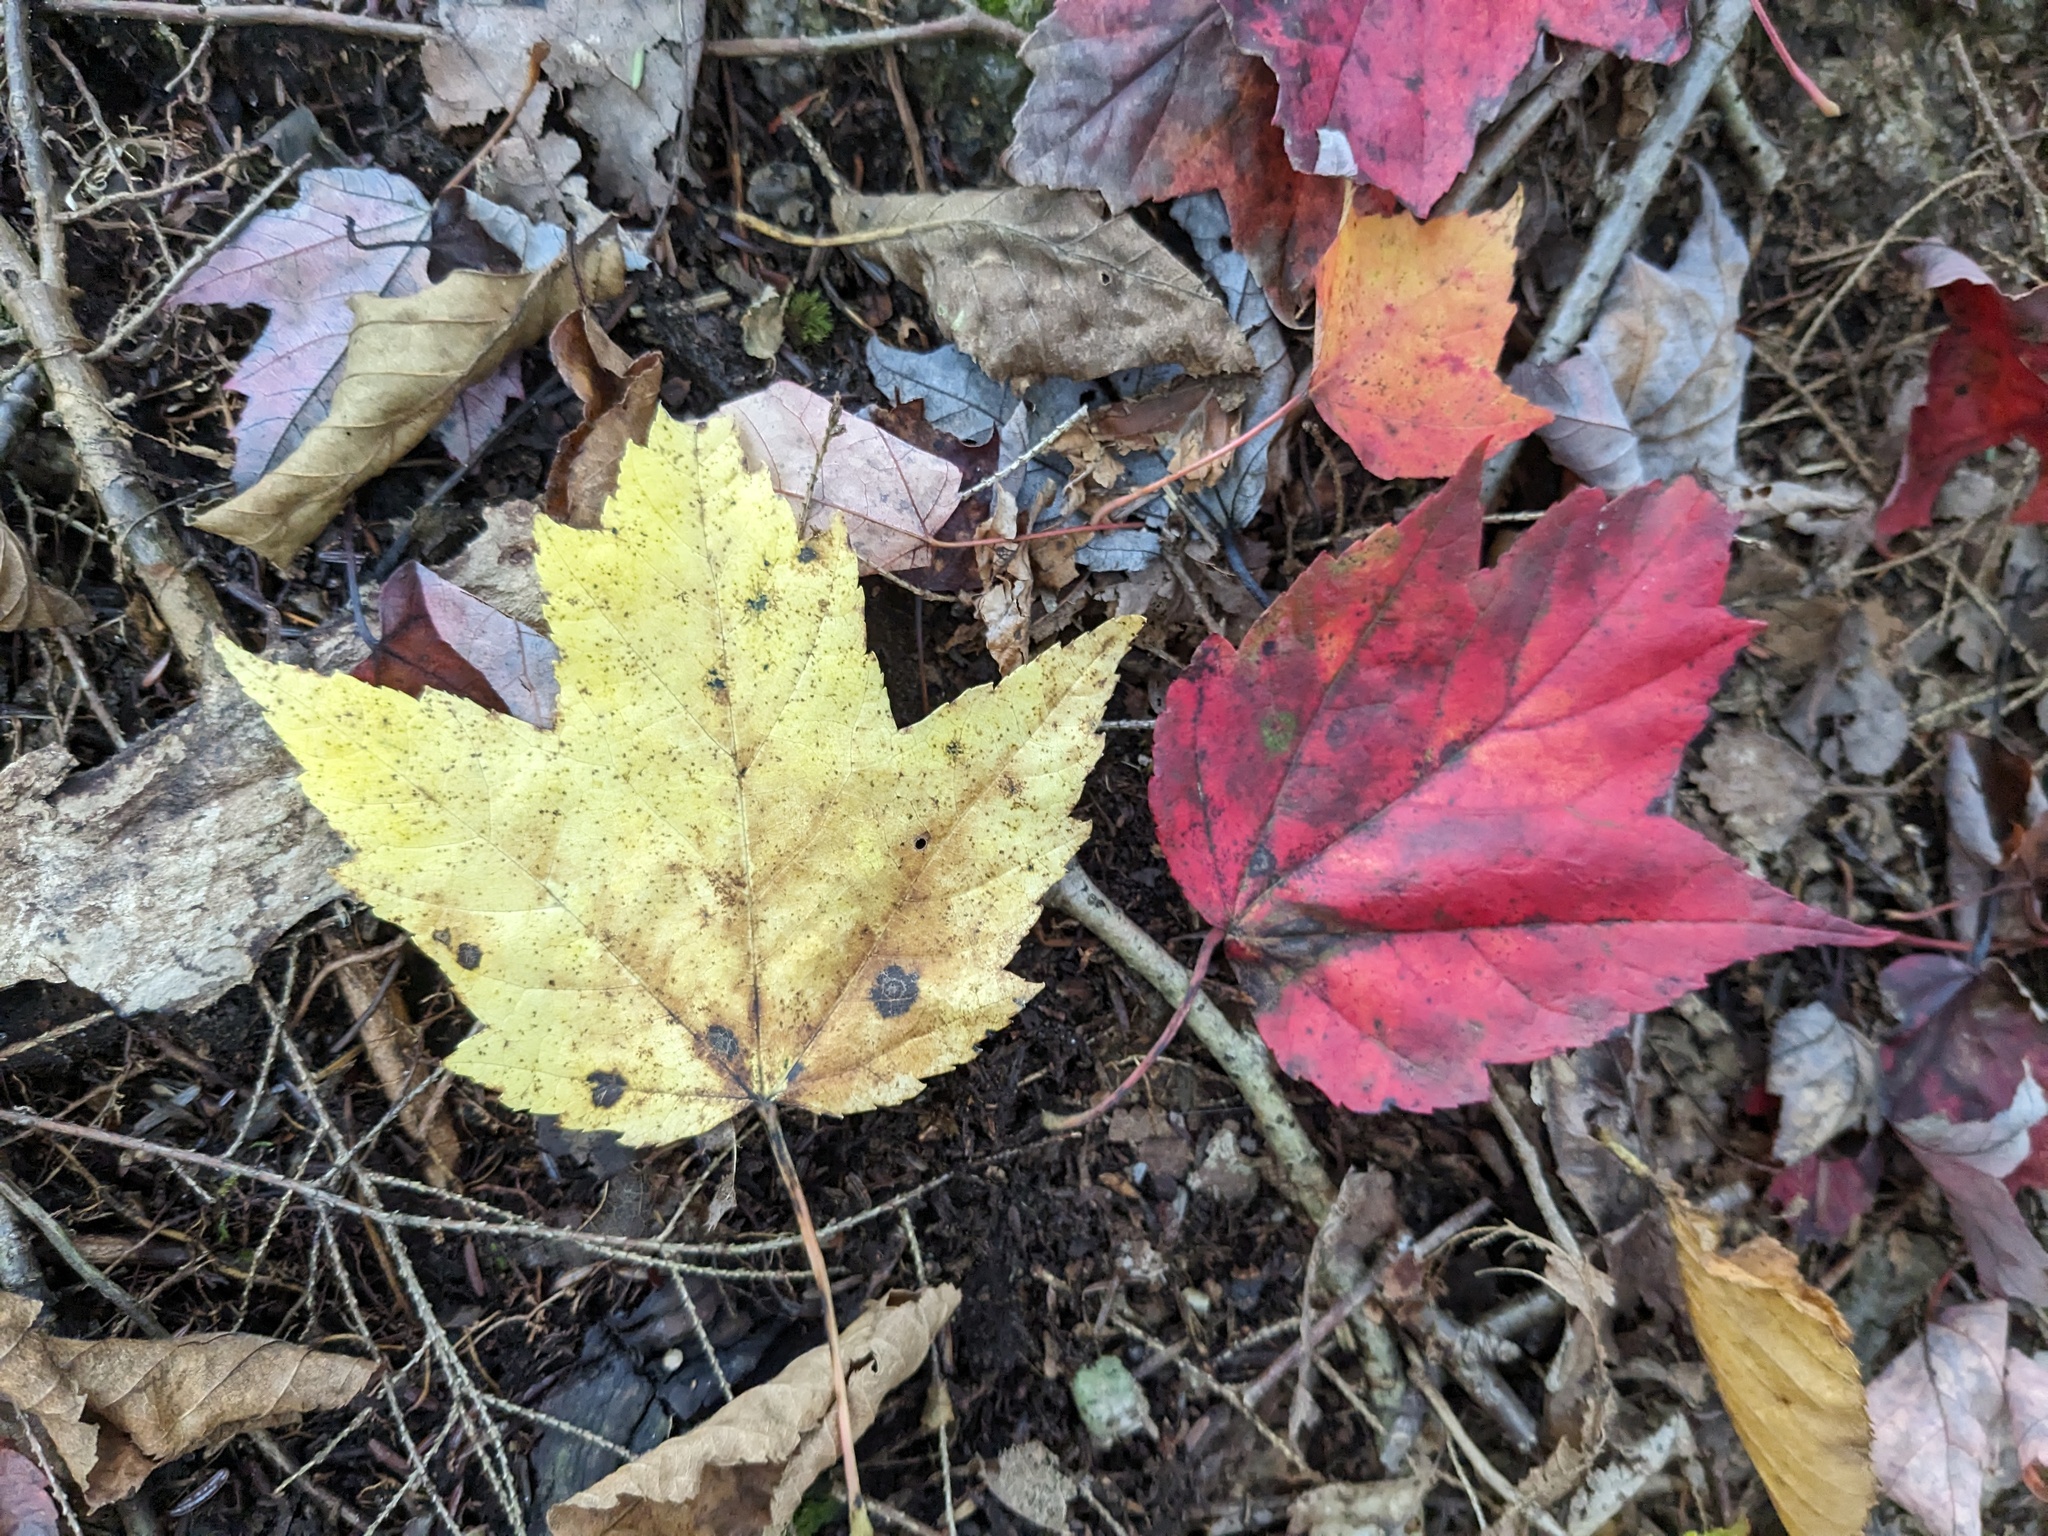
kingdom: Plantae
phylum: Tracheophyta
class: Magnoliopsida
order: Sapindales
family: Sapindaceae
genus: Acer
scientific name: Acer rubrum
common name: Red maple
